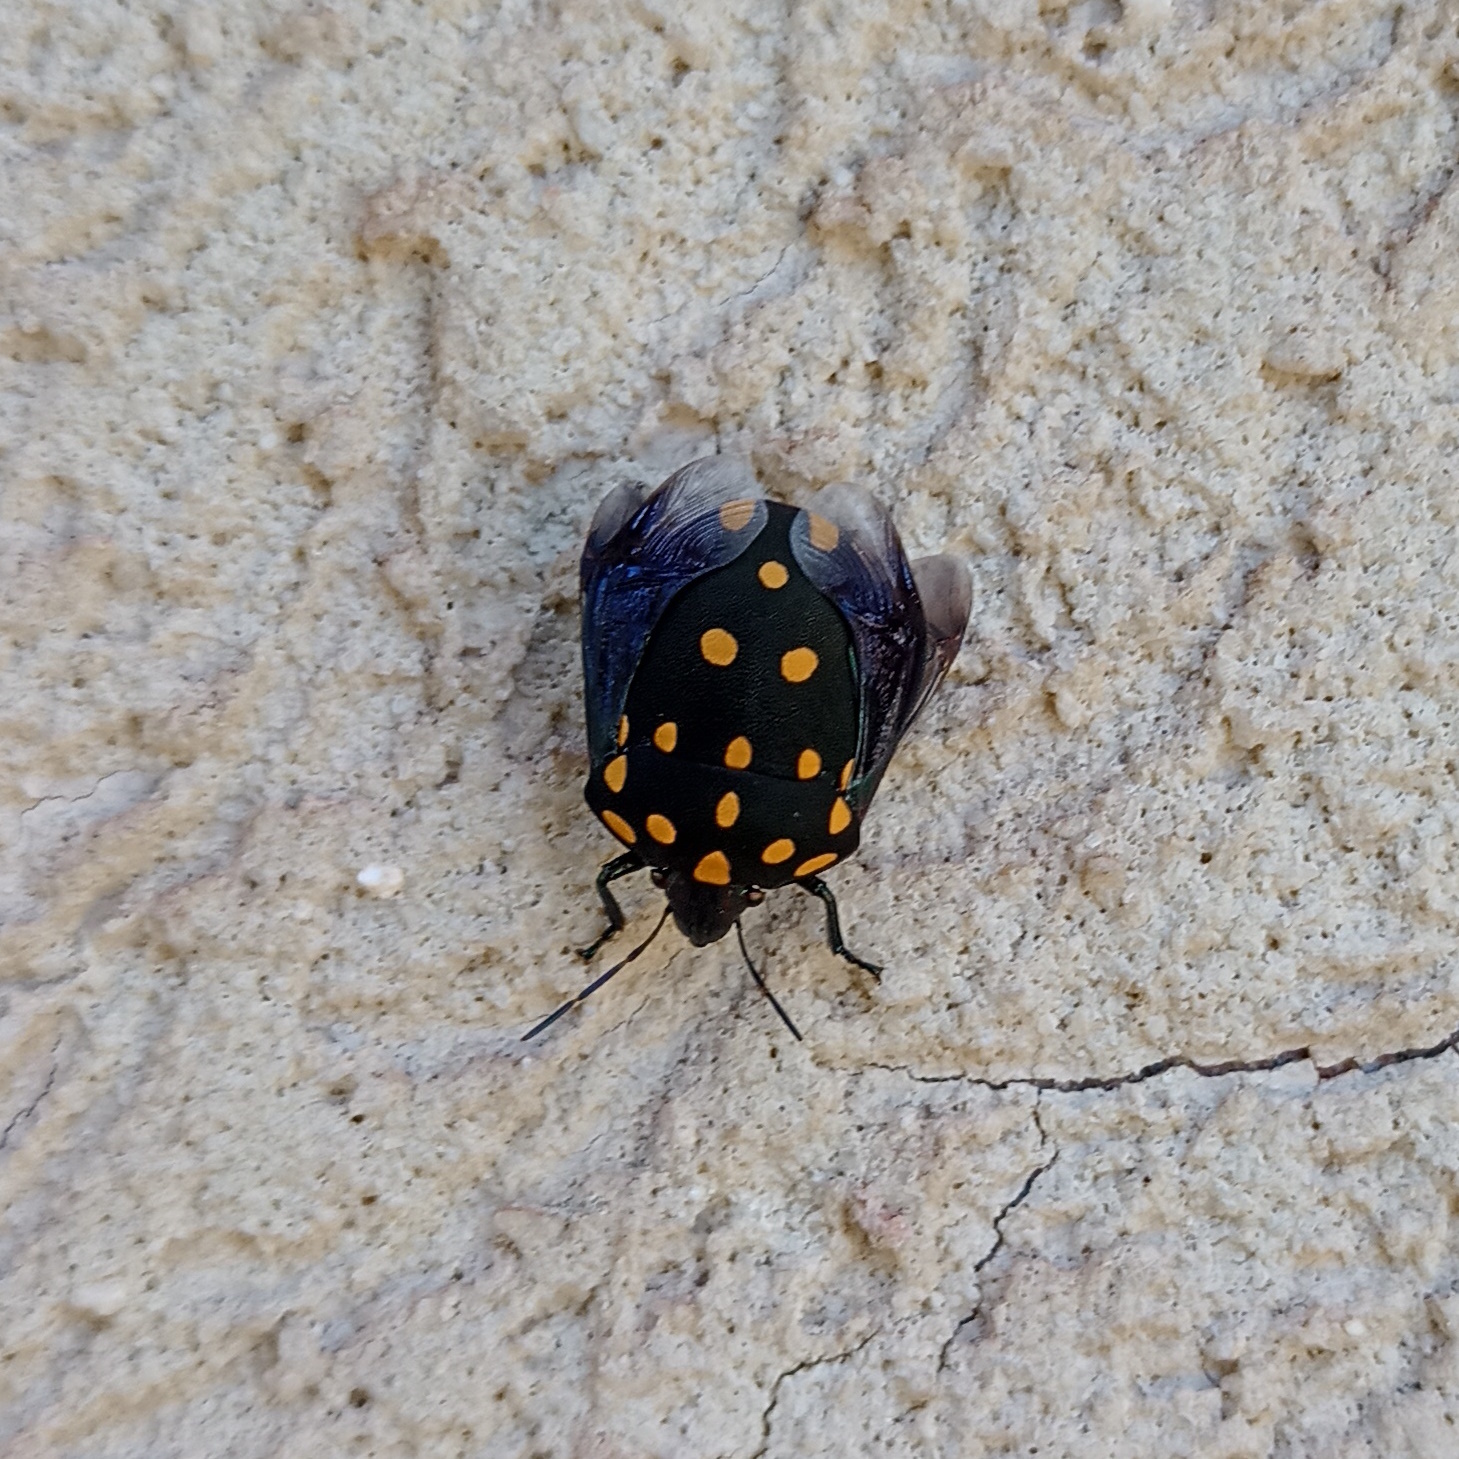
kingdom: Animalia
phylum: Arthropoda
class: Insecta
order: Hemiptera
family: Scutelleridae
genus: Pachycoris
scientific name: Pachycoris torridus
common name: Torrid jewel bug
